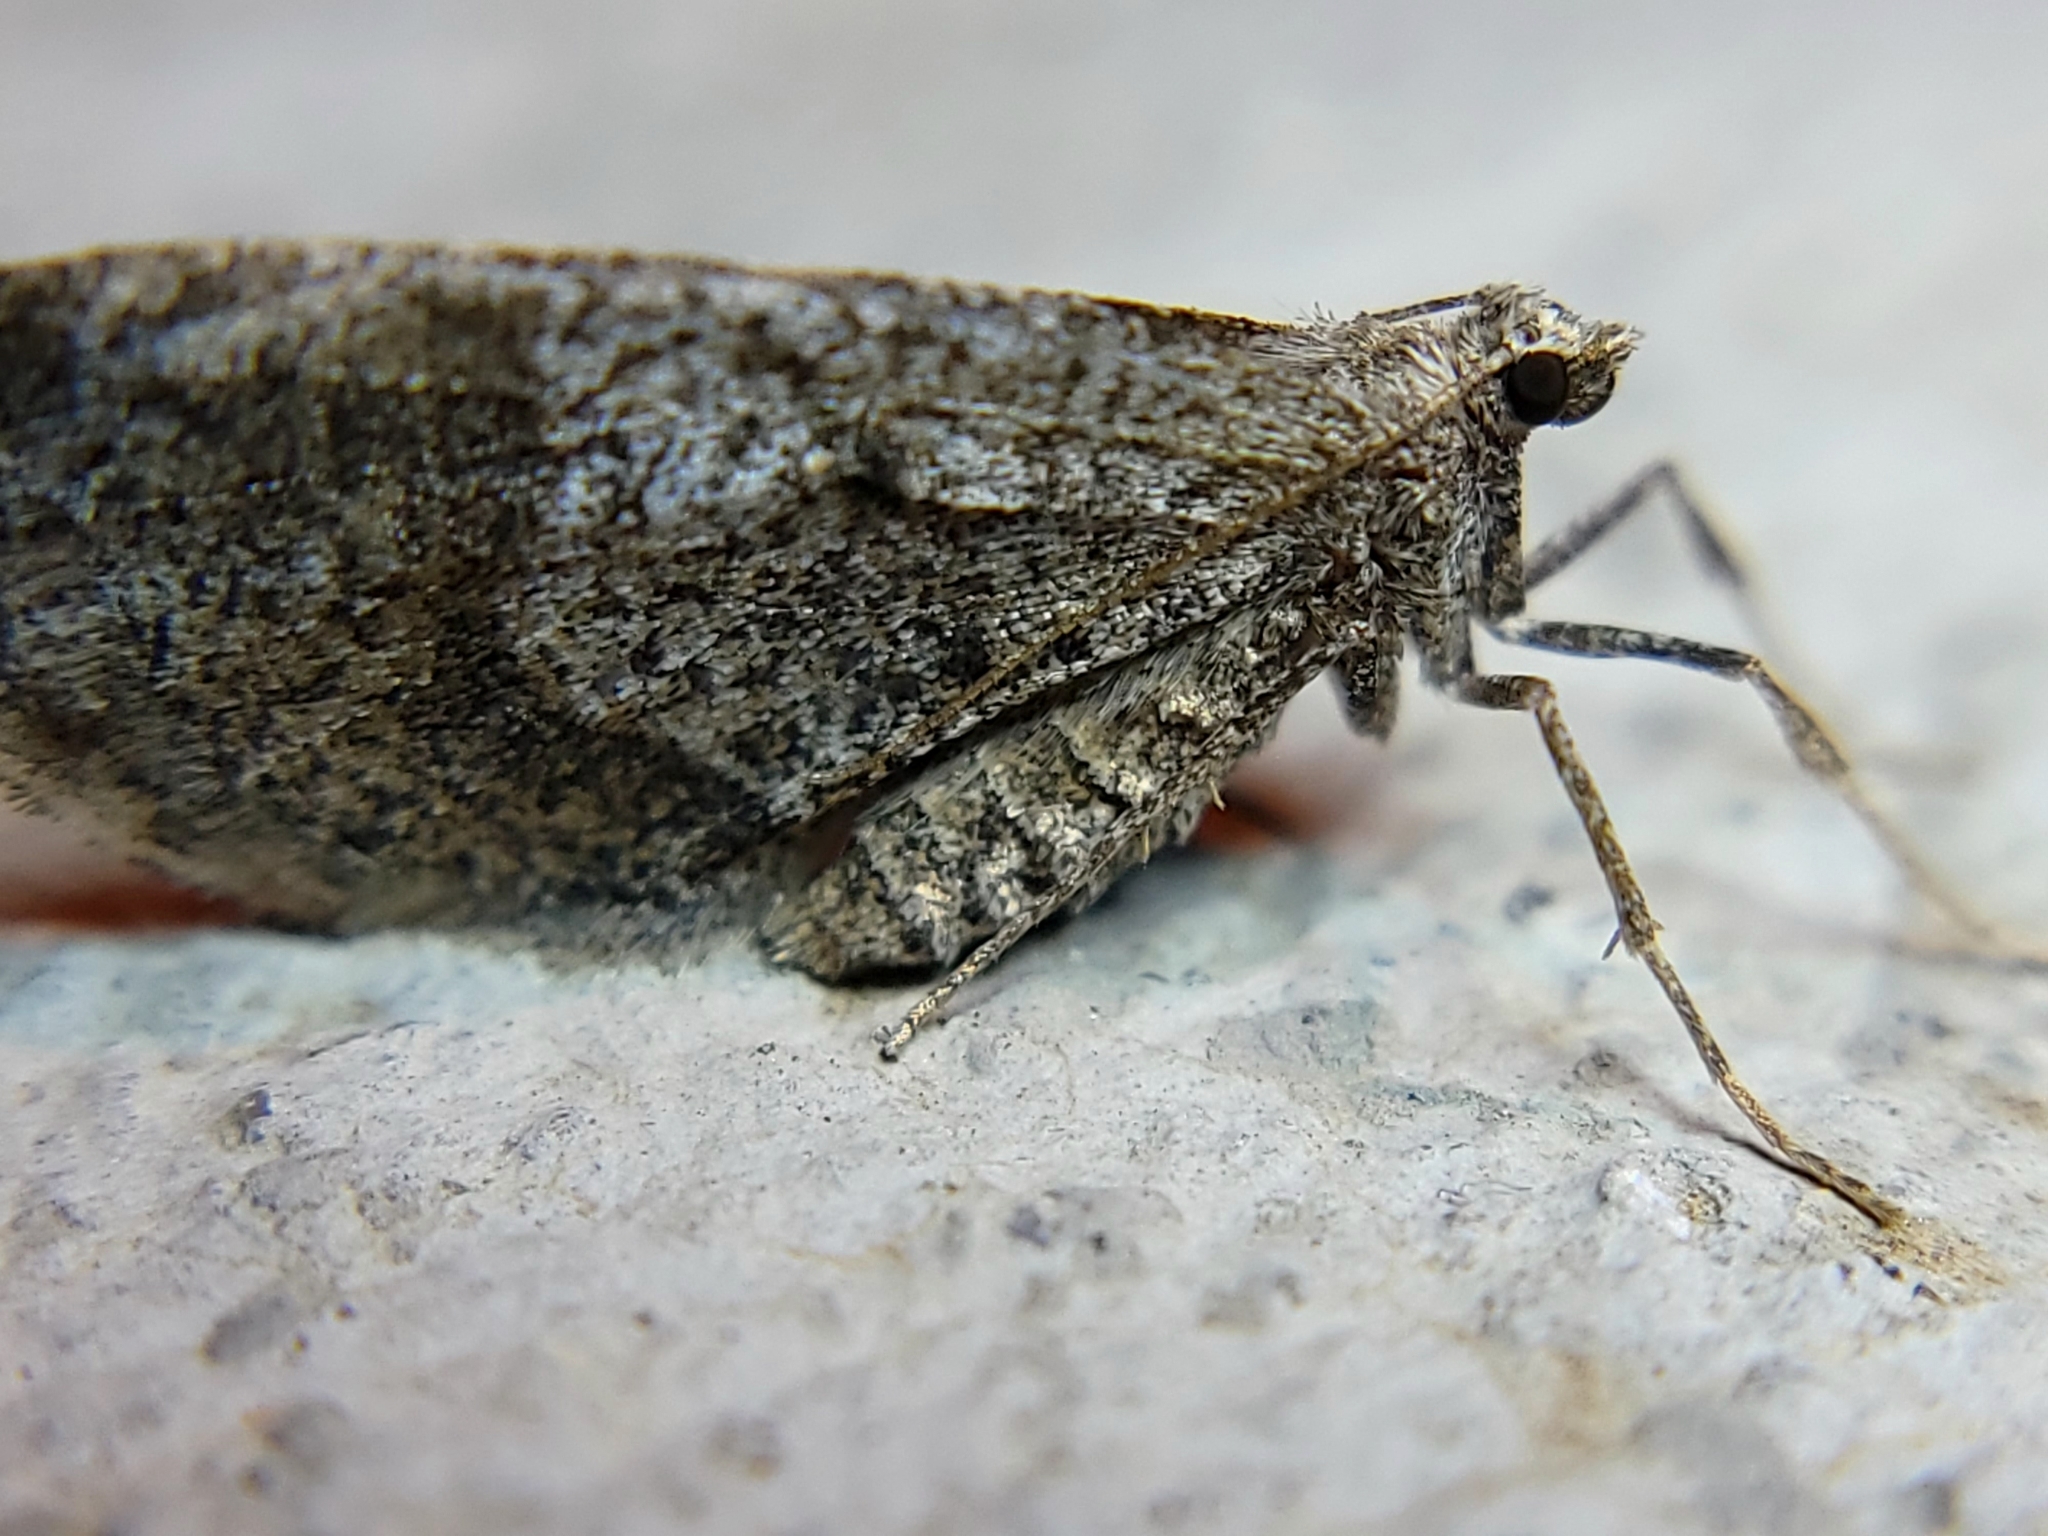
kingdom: Animalia
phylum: Arthropoda
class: Insecta
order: Lepidoptera
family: Geometridae
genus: Stamnodes
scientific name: Stamnodes affiliata
